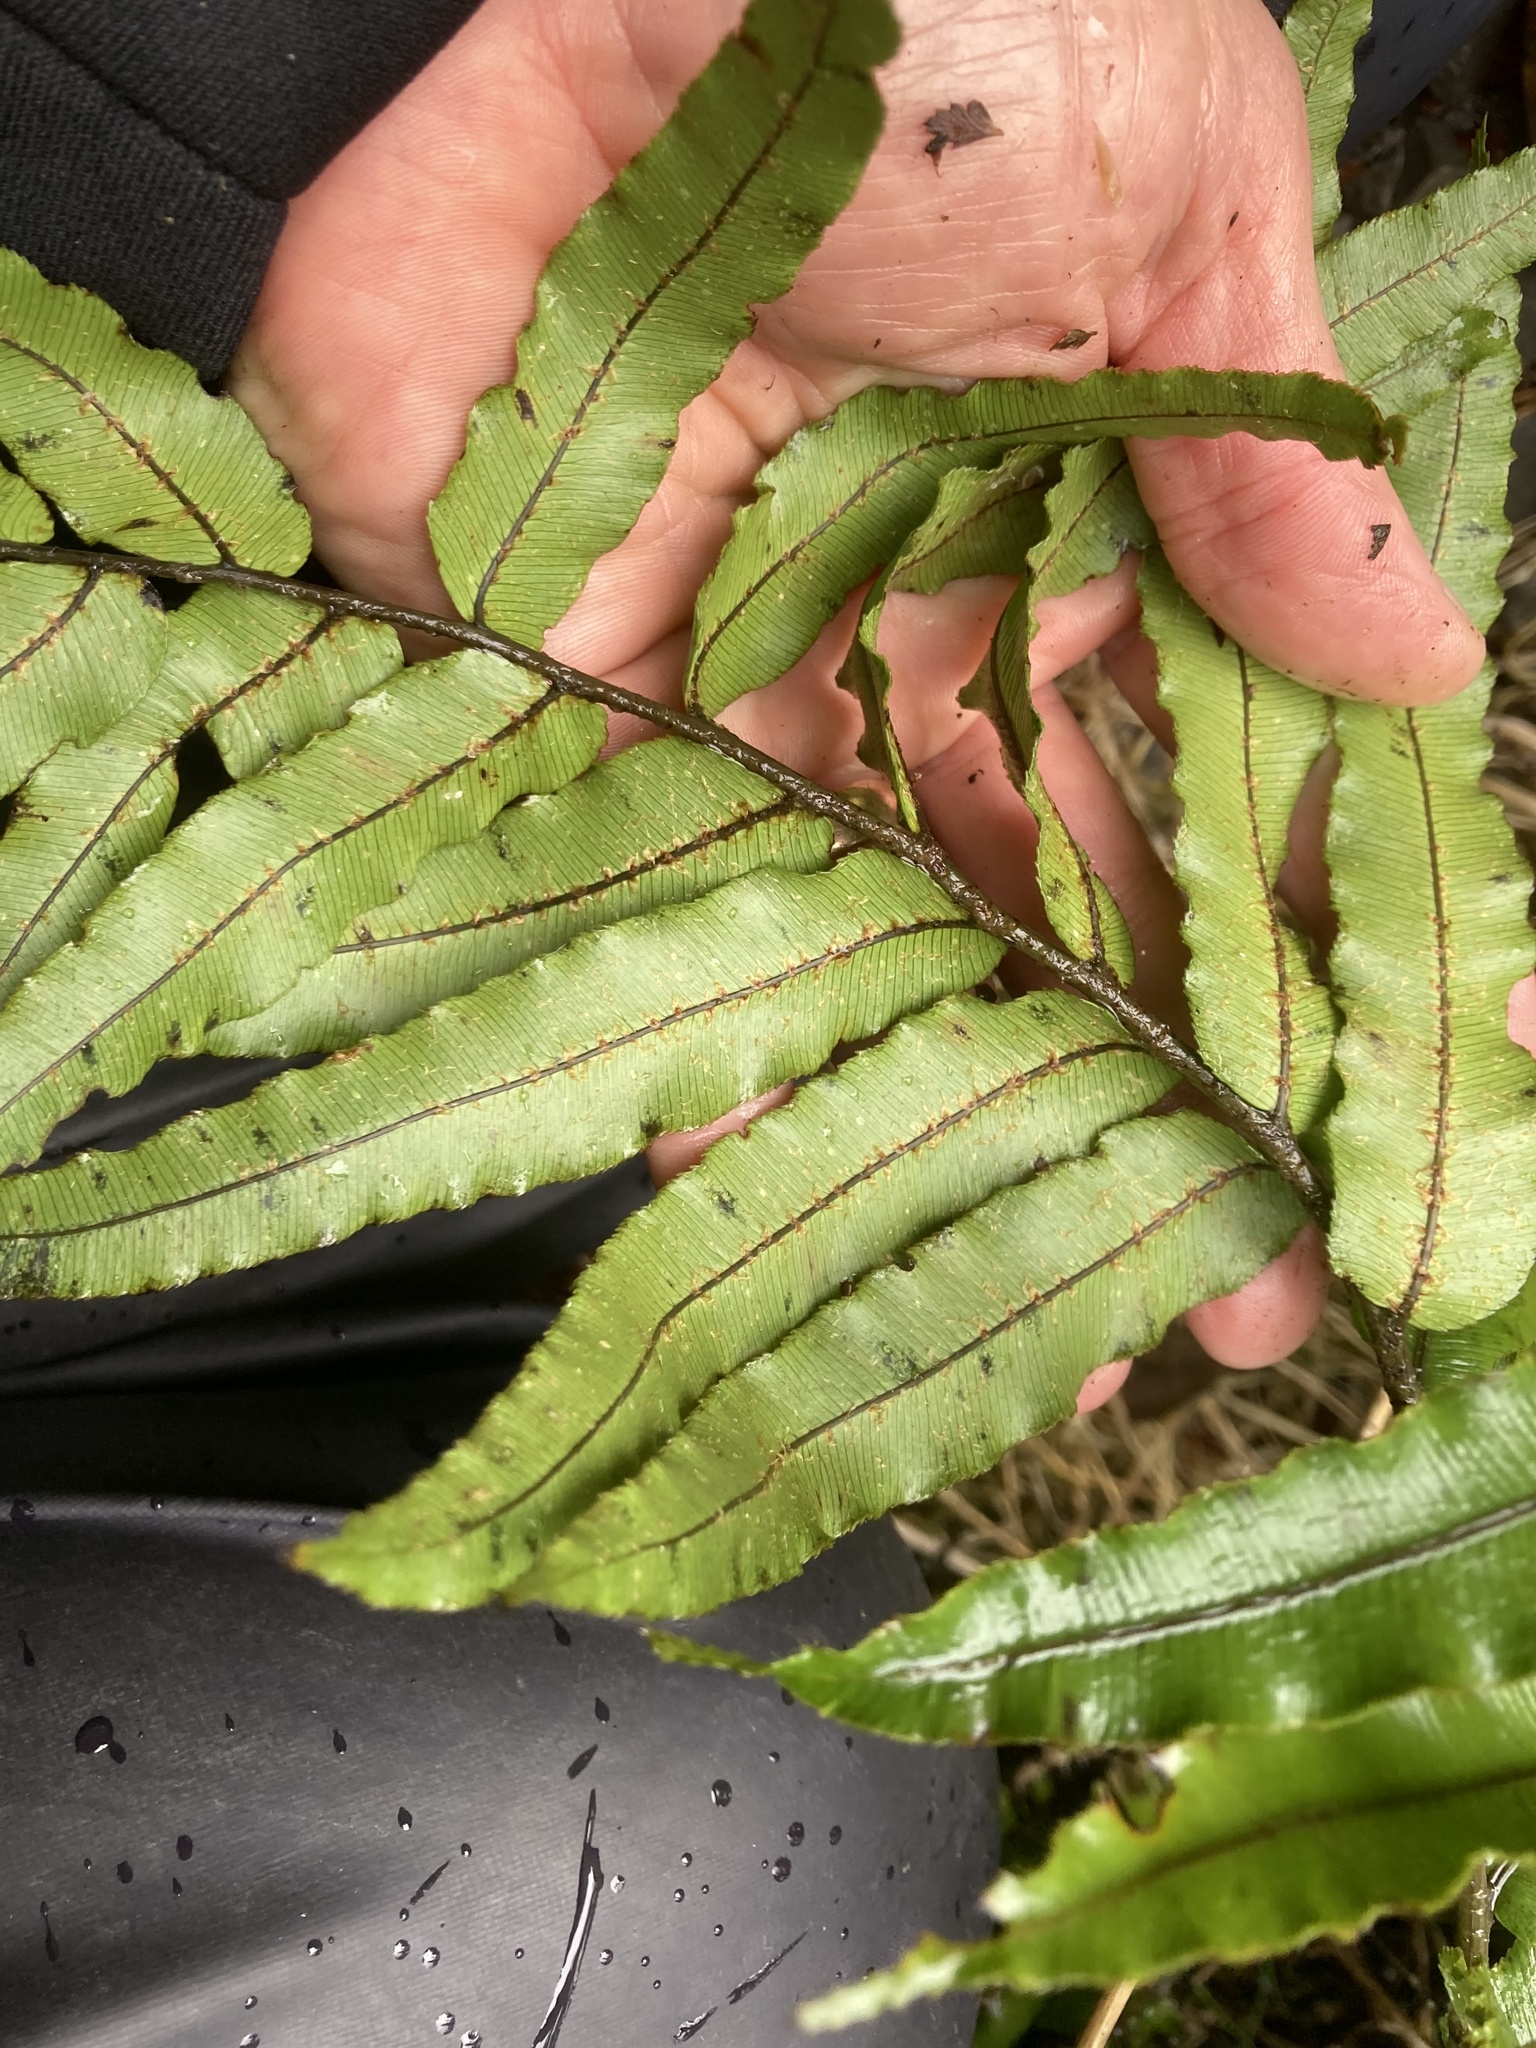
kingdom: Plantae
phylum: Tracheophyta
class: Polypodiopsida
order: Polypodiales
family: Blechnaceae
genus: Parablechnum
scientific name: Parablechnum montanum
